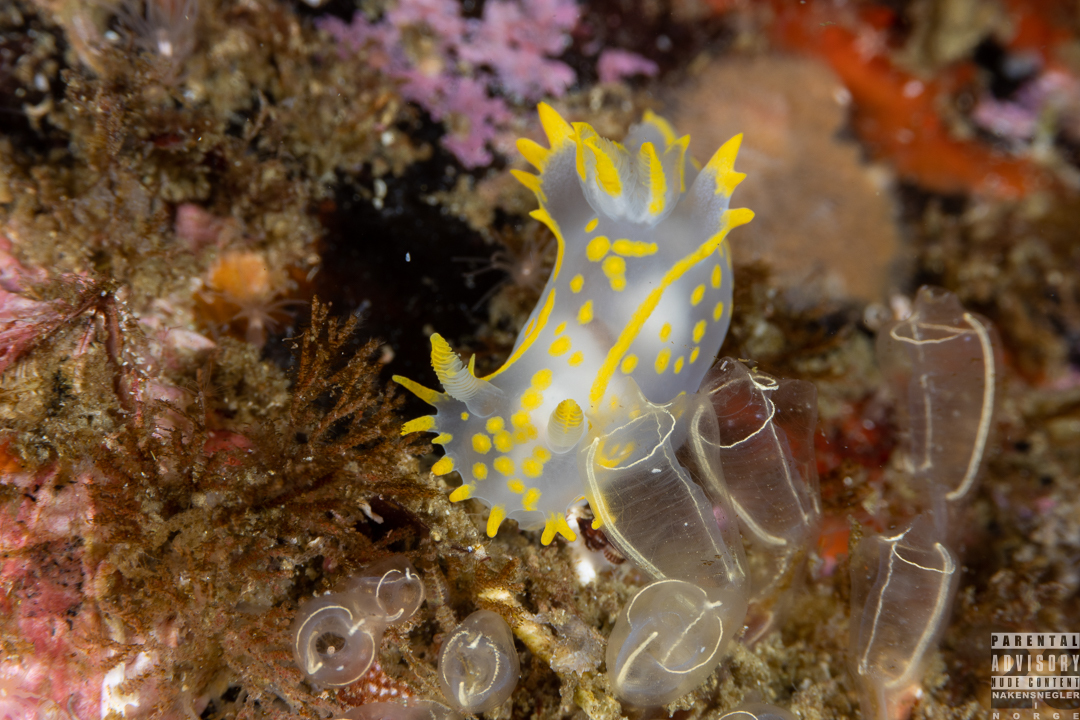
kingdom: Animalia
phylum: Mollusca
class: Gastropoda
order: Nudibranchia
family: Polyceridae
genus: Polycera
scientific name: Polycera faeroensis
